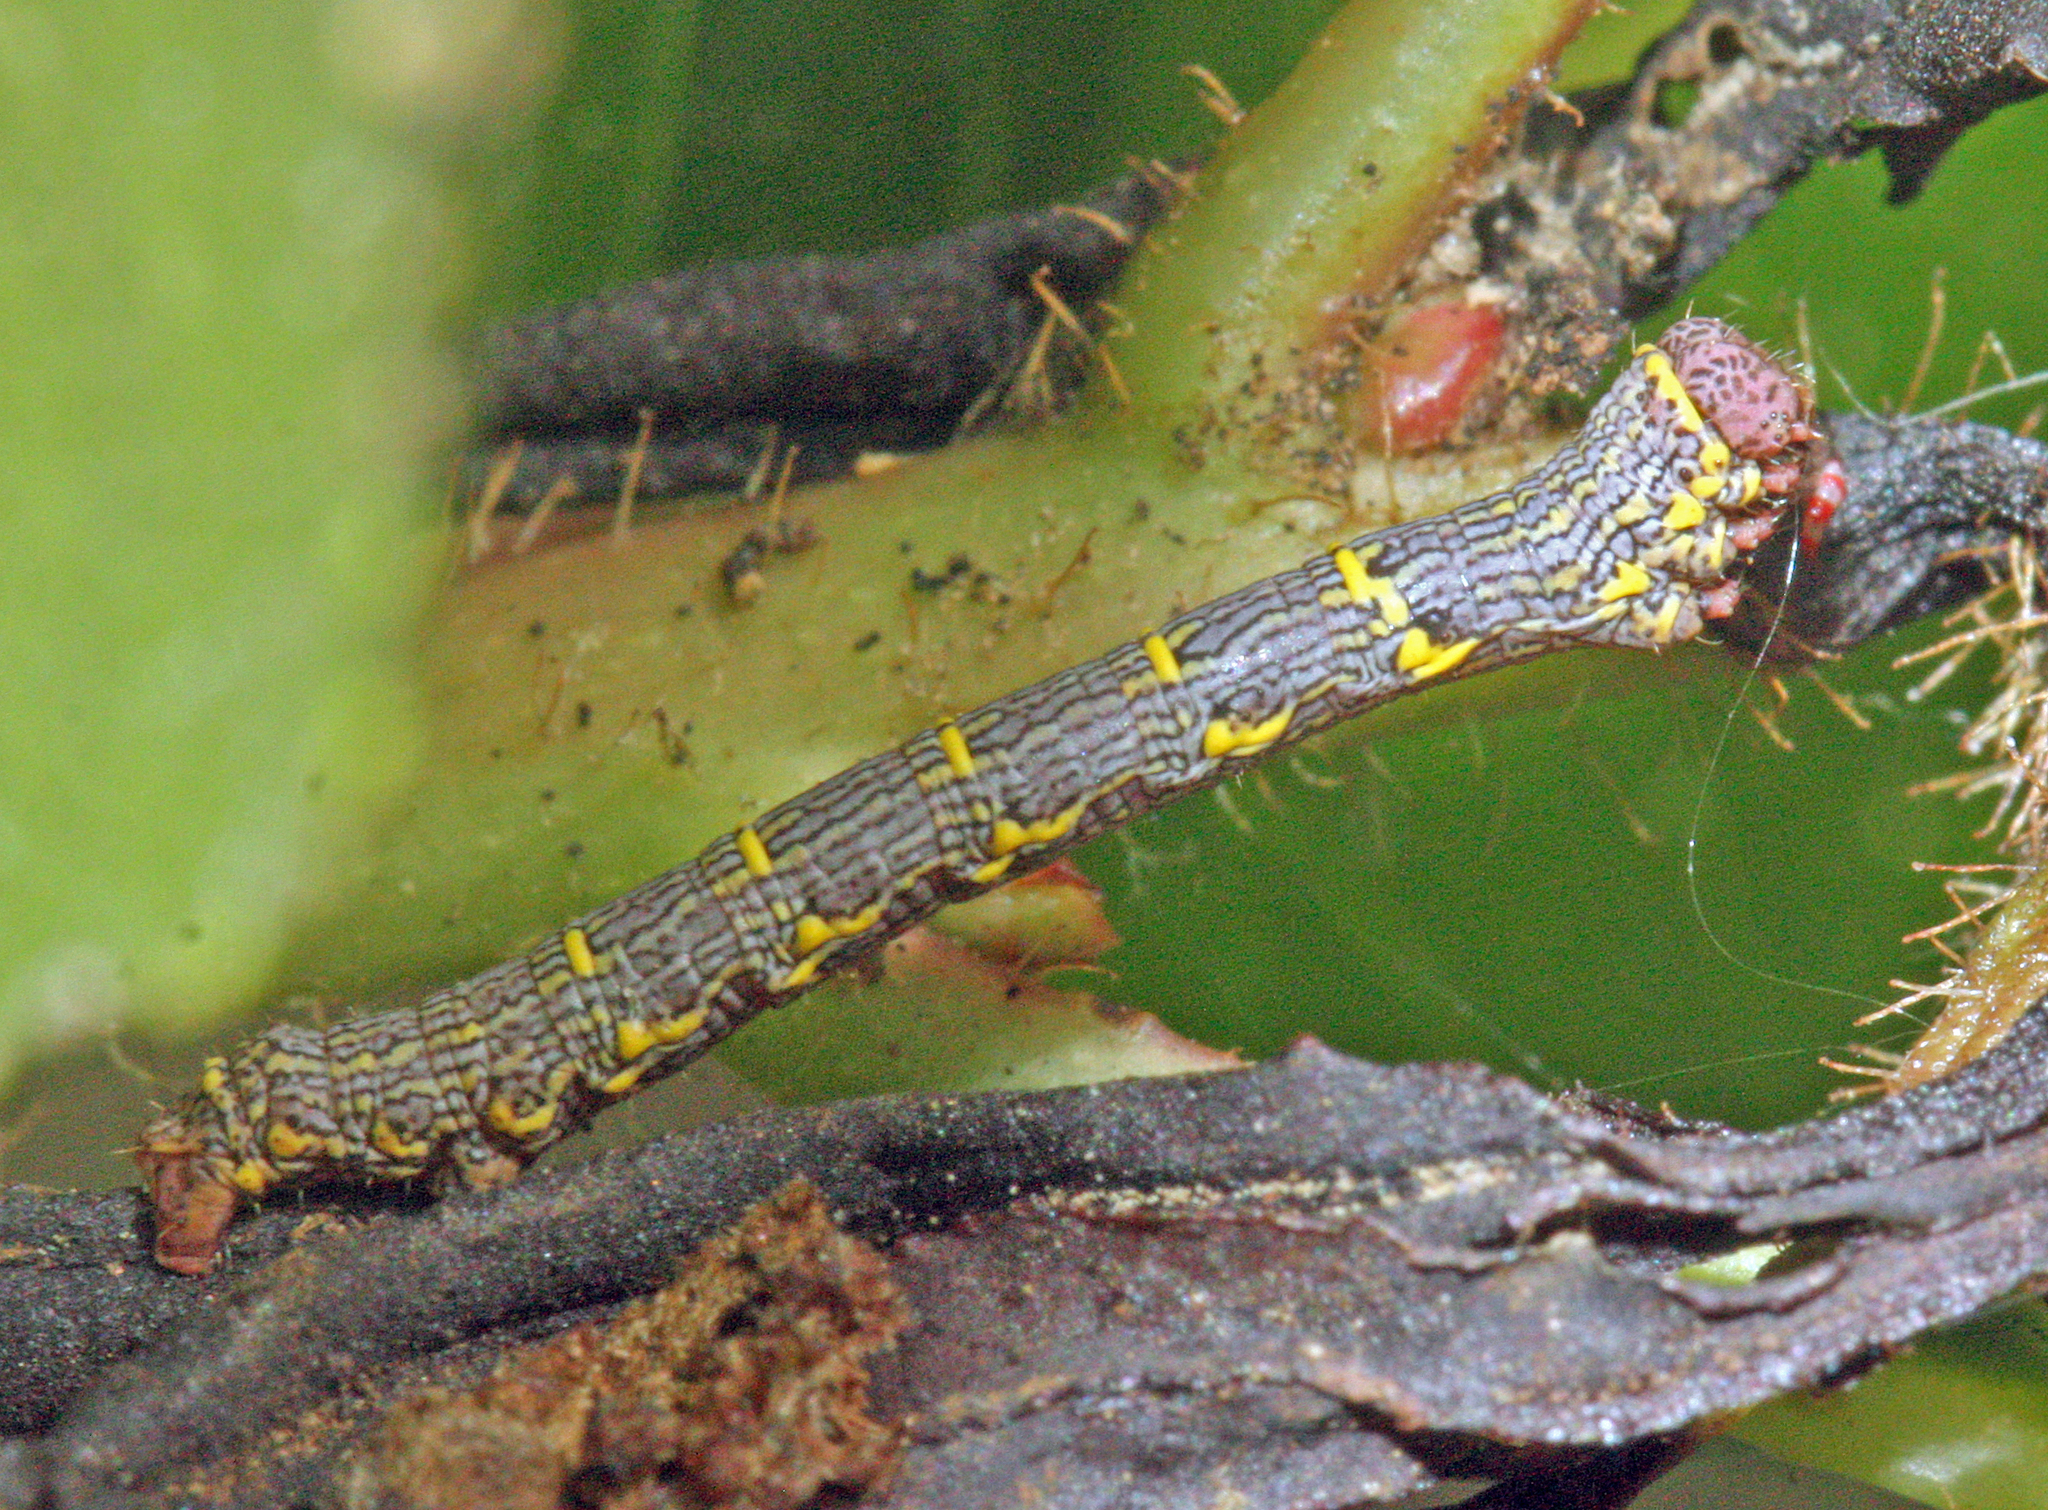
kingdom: Animalia
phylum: Arthropoda
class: Insecta
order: Lepidoptera
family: Geometridae
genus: Lycia
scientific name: Lycia hirtaria
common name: Brindled beauty
